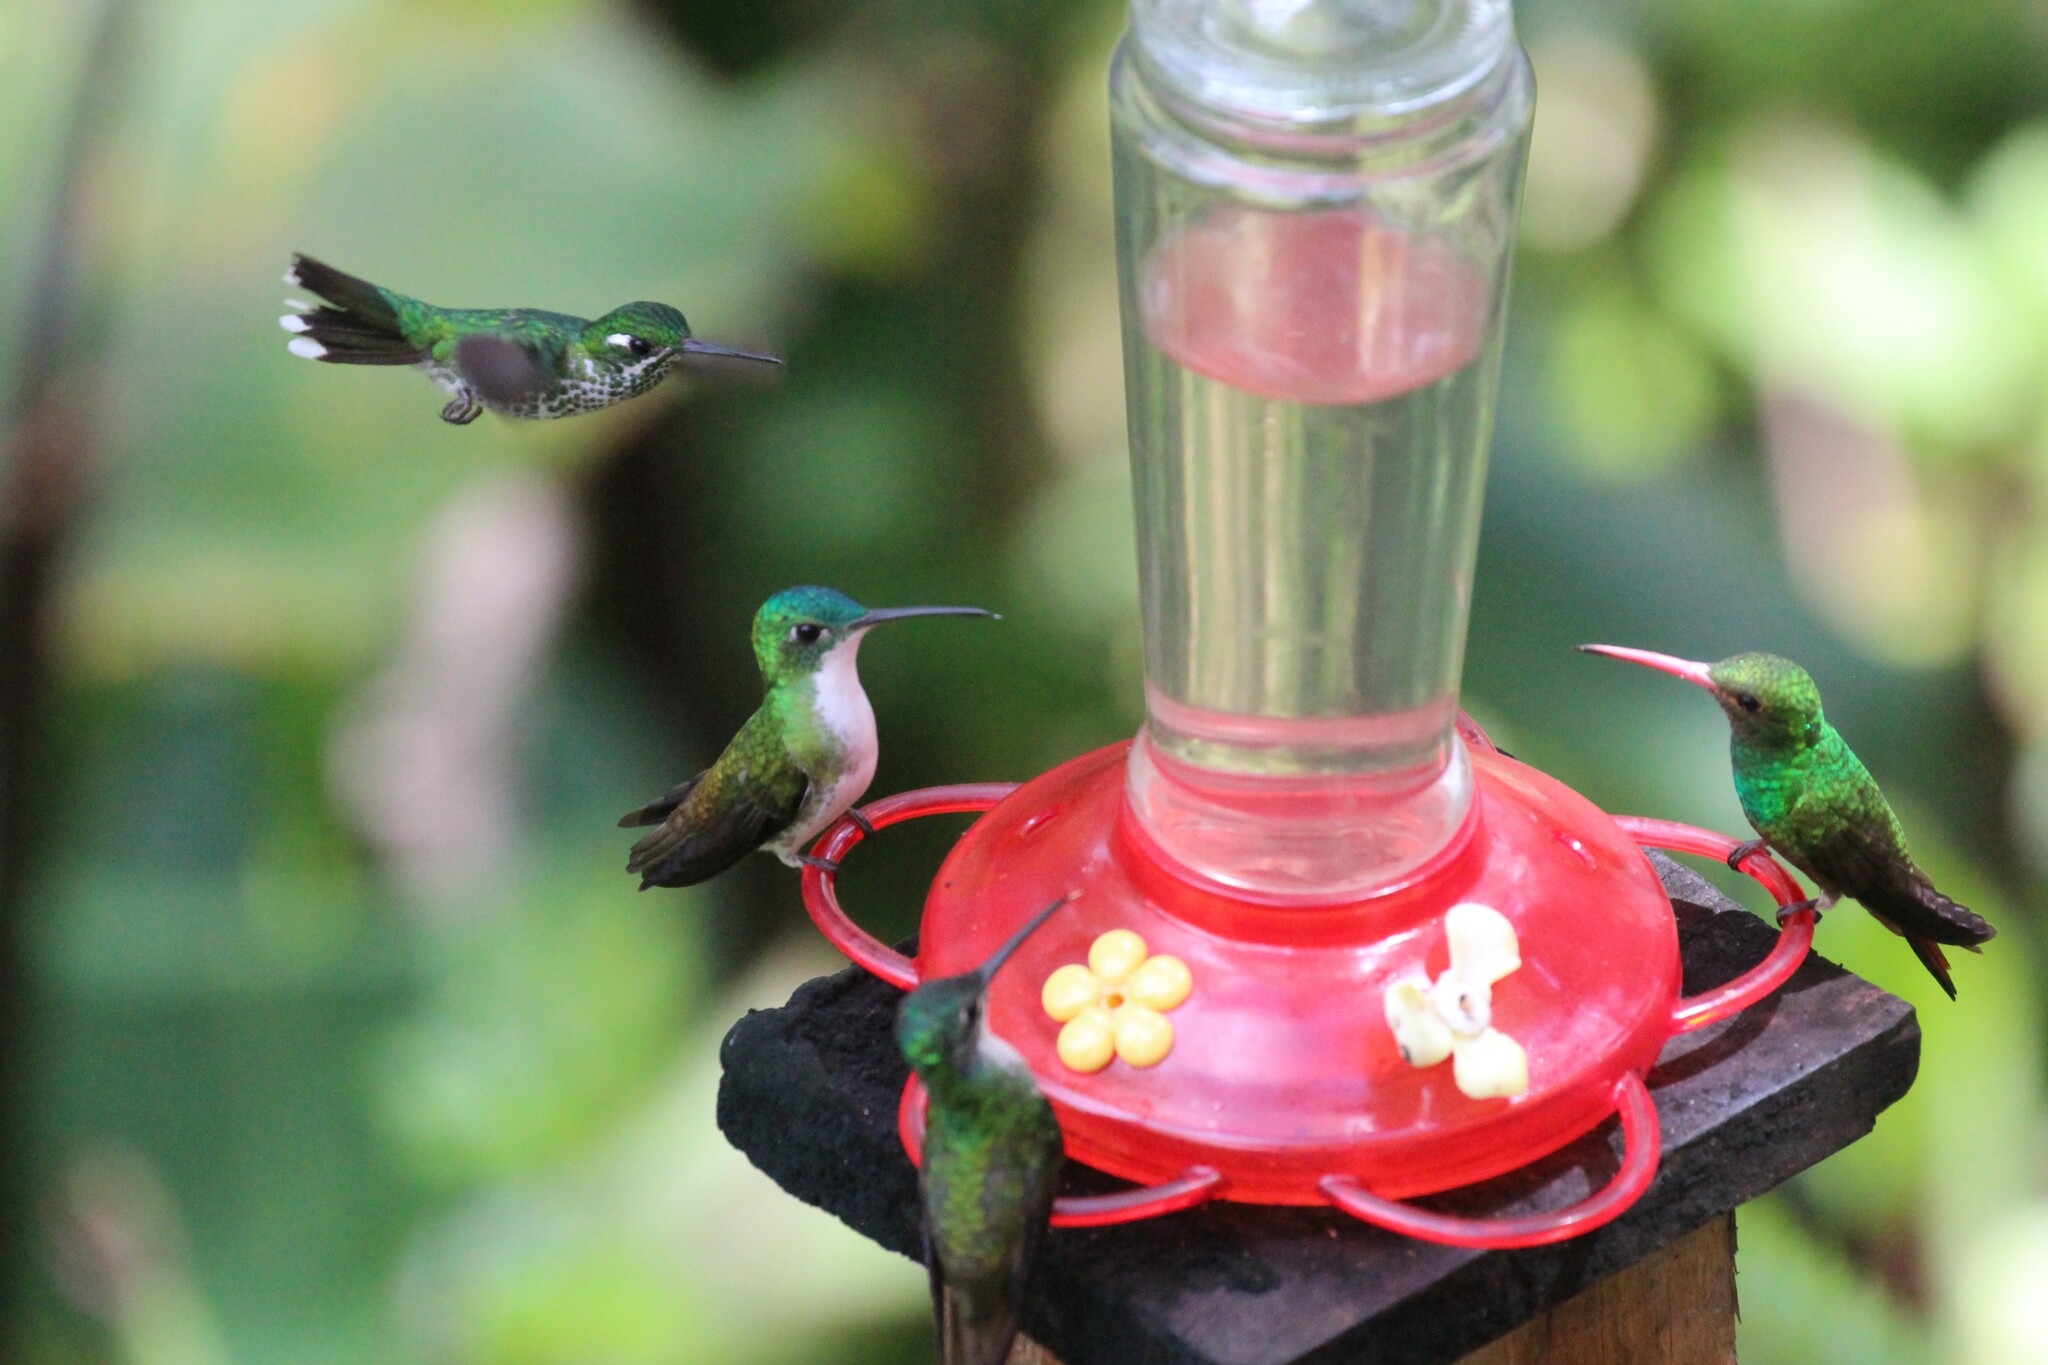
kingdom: Animalia
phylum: Chordata
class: Aves
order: Apodiformes
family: Trochilidae
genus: Amazilia
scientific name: Amazilia tzacatl
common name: Rufous-tailed hummingbird
